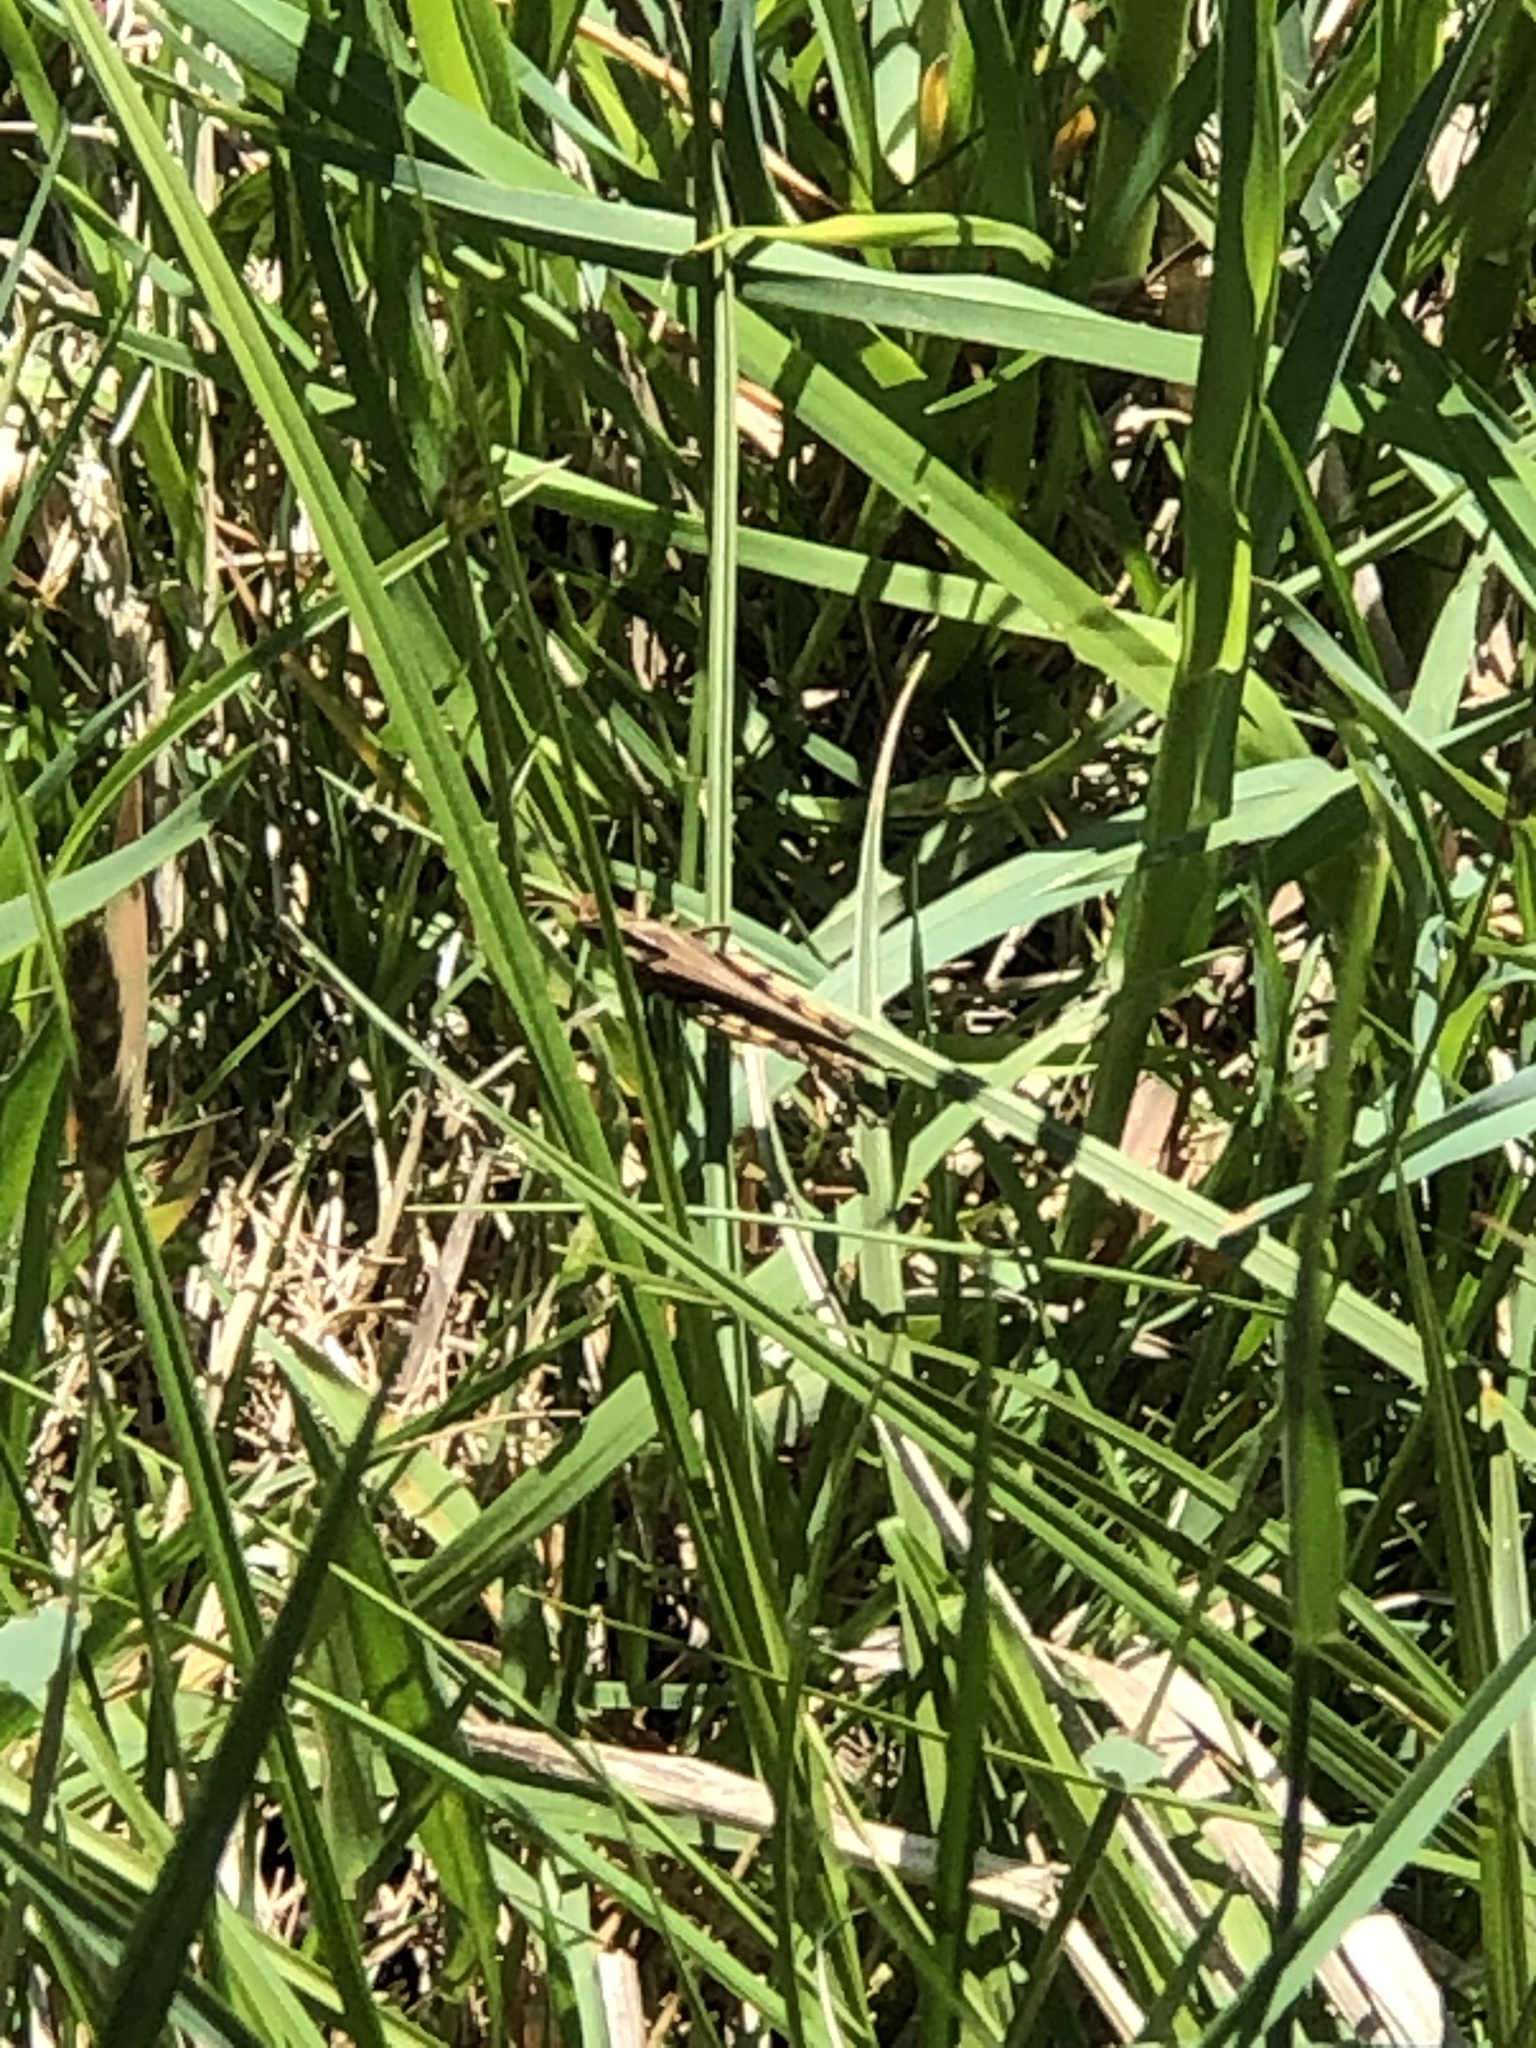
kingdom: Animalia
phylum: Arthropoda
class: Insecta
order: Orthoptera
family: Acrididae
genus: Chortophaga
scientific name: Chortophaga viridifasciata
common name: Green-striped grasshopper
